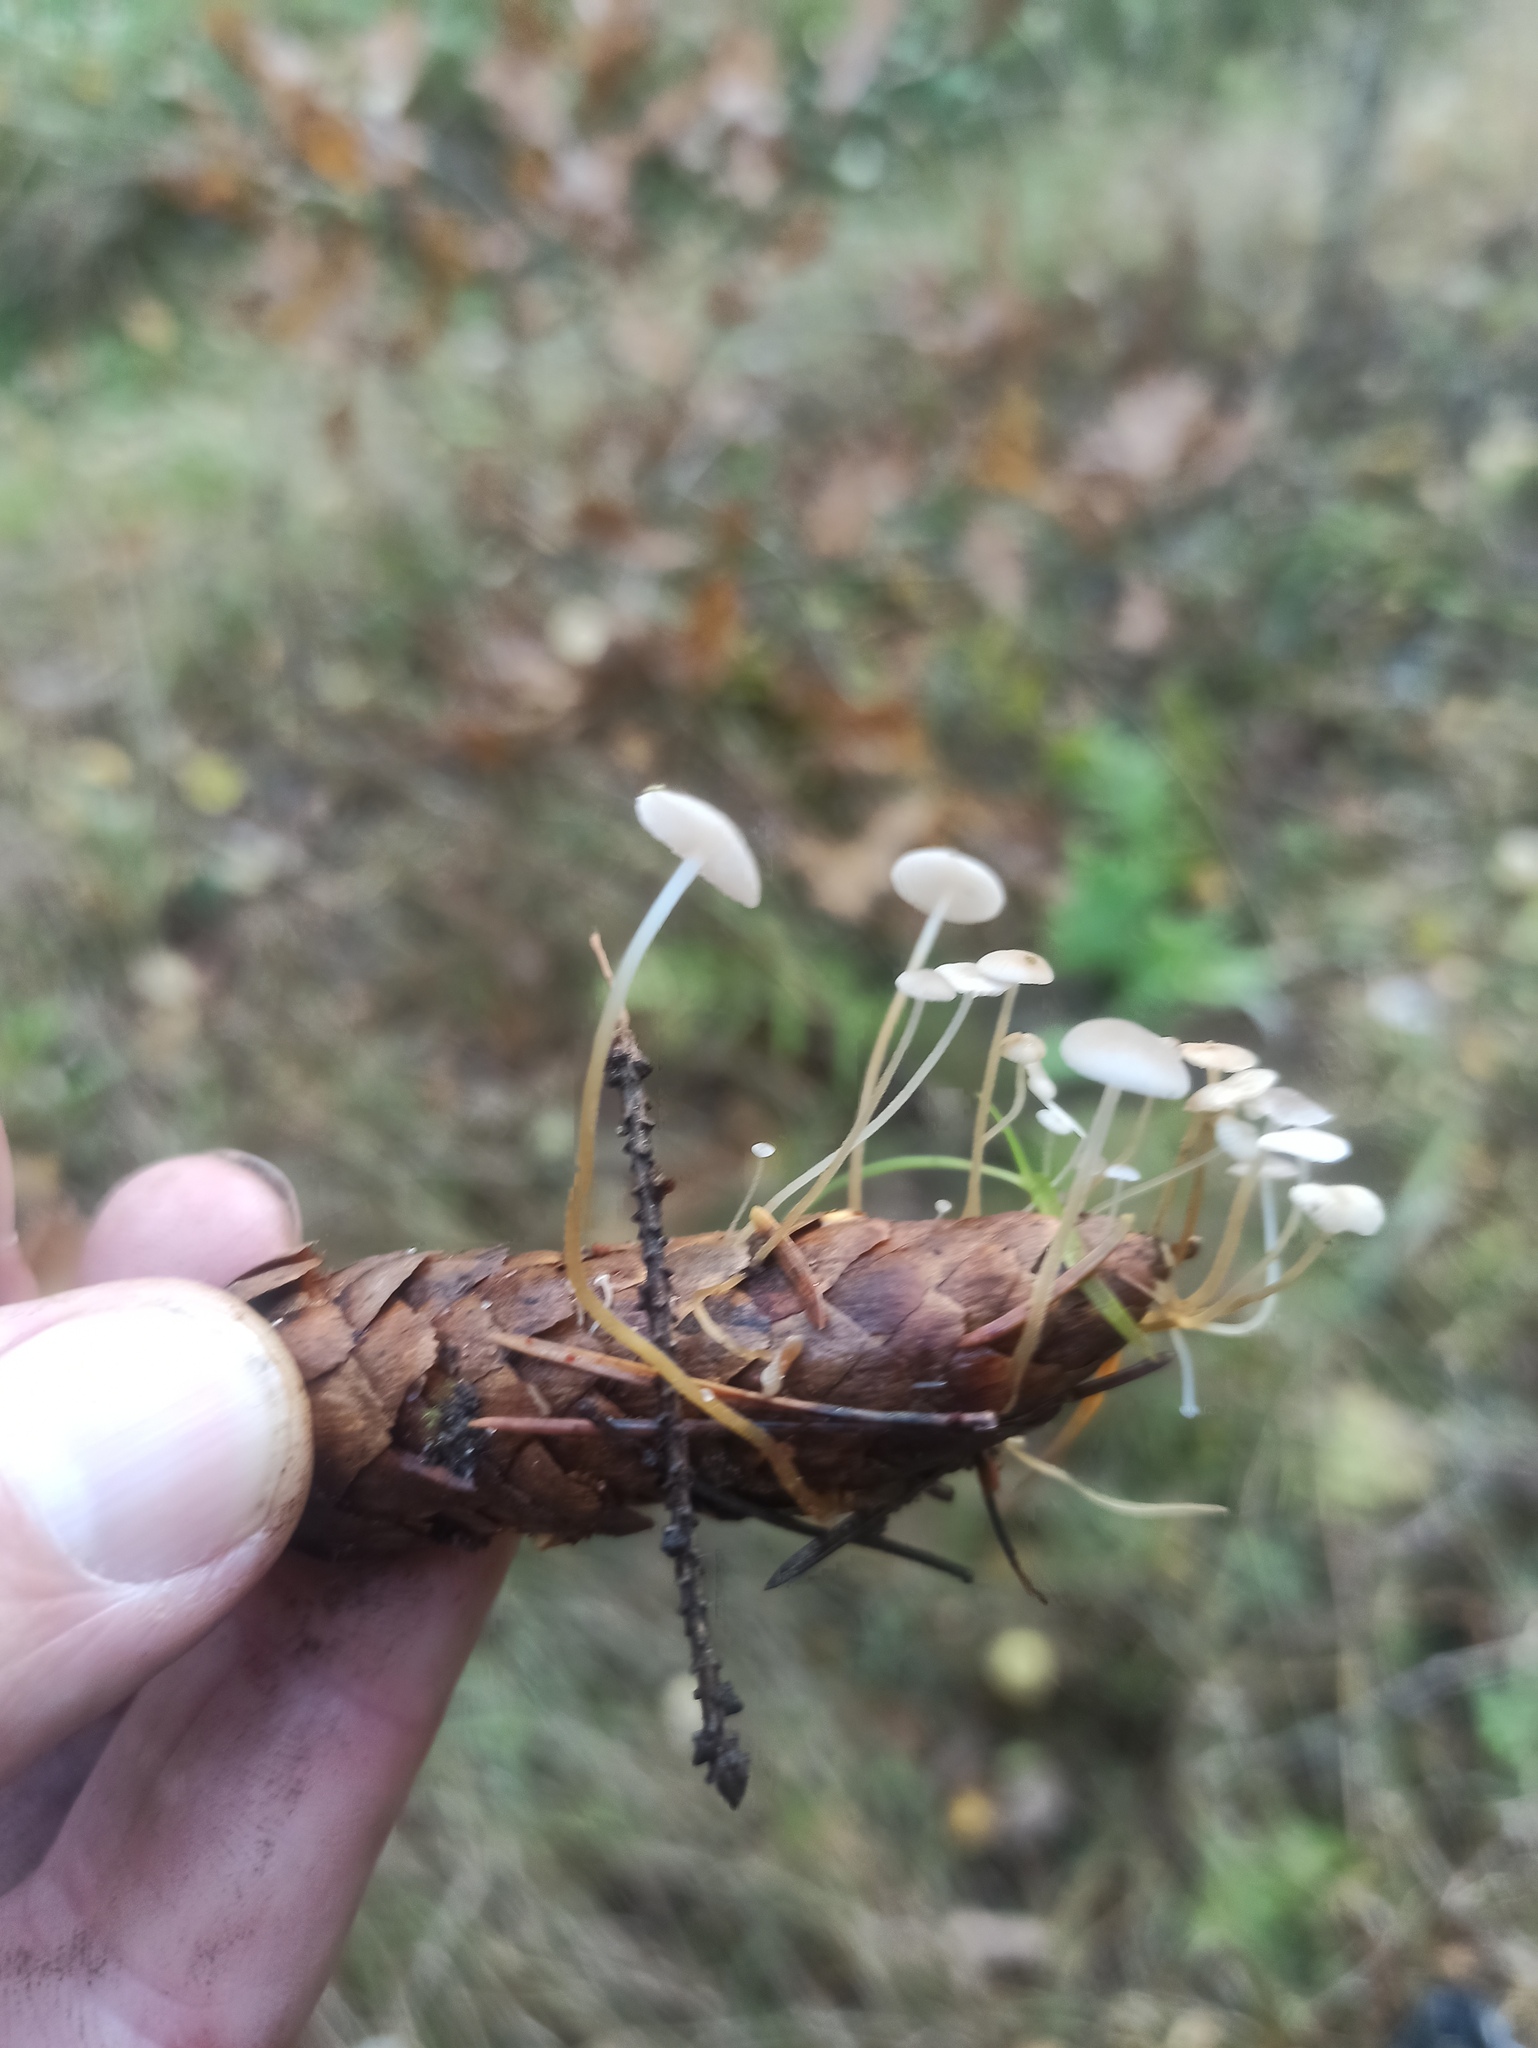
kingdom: Fungi
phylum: Basidiomycota
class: Agaricomycetes
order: Agaricales
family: Physalacriaceae
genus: Strobilurus
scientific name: Strobilurus conigenus
